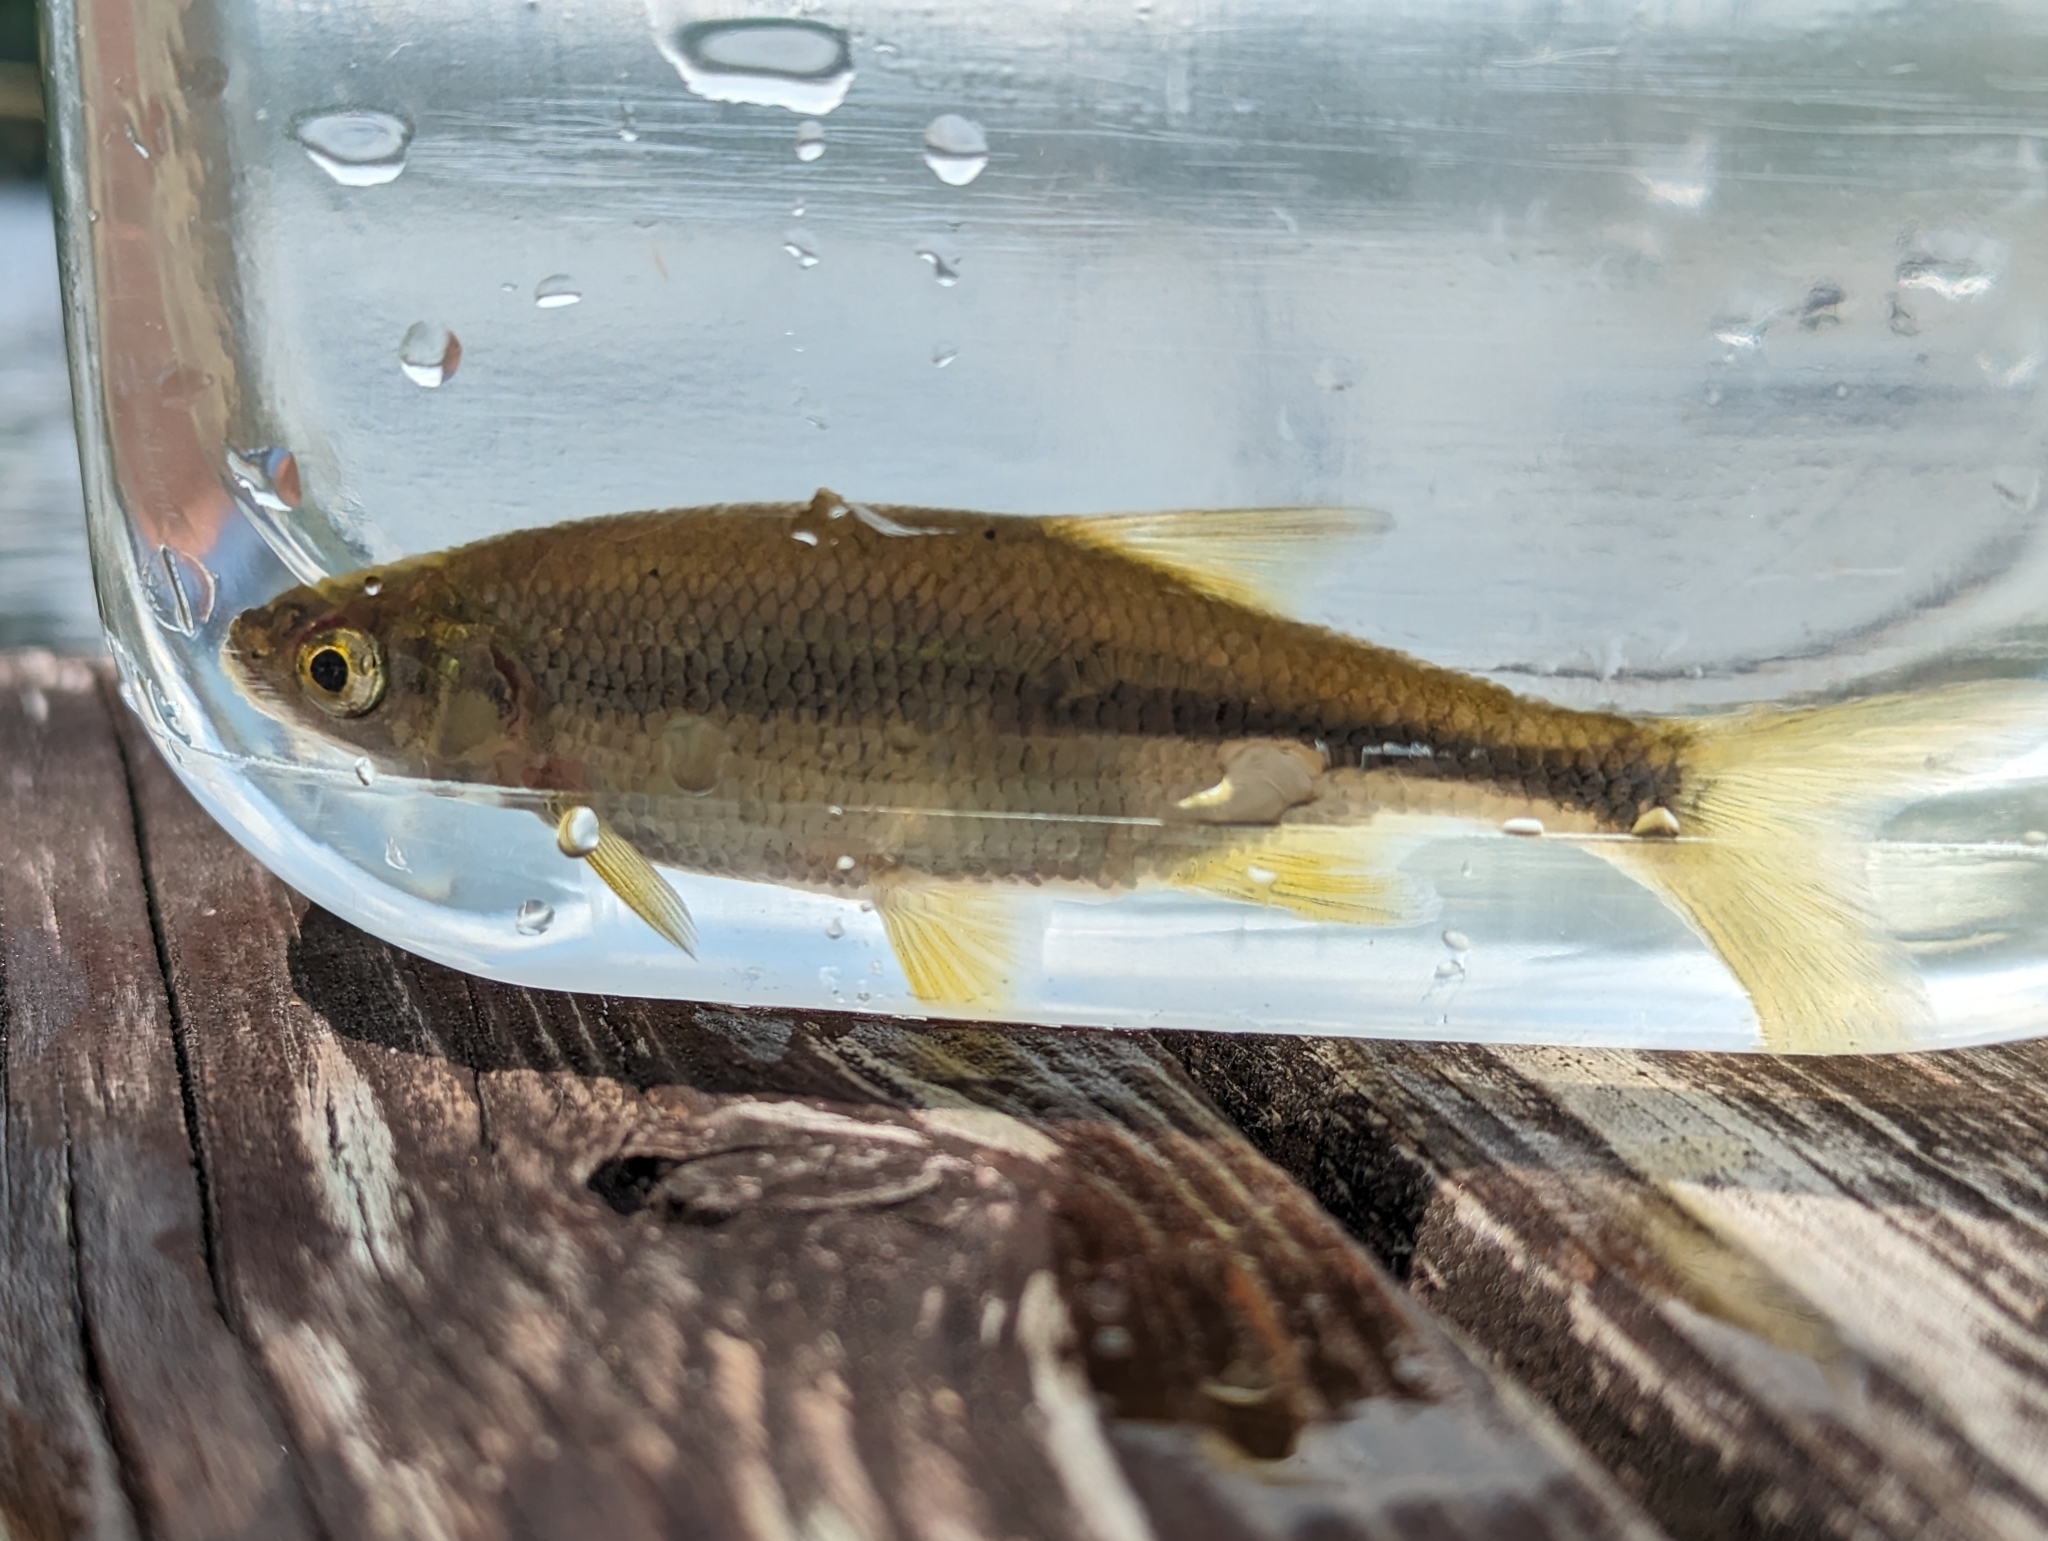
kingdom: Animalia
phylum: Chordata
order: Cypriniformes
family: Cyprinidae
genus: Notemigonus
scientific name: Notemigonus crysoleucas
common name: Golden shiner
